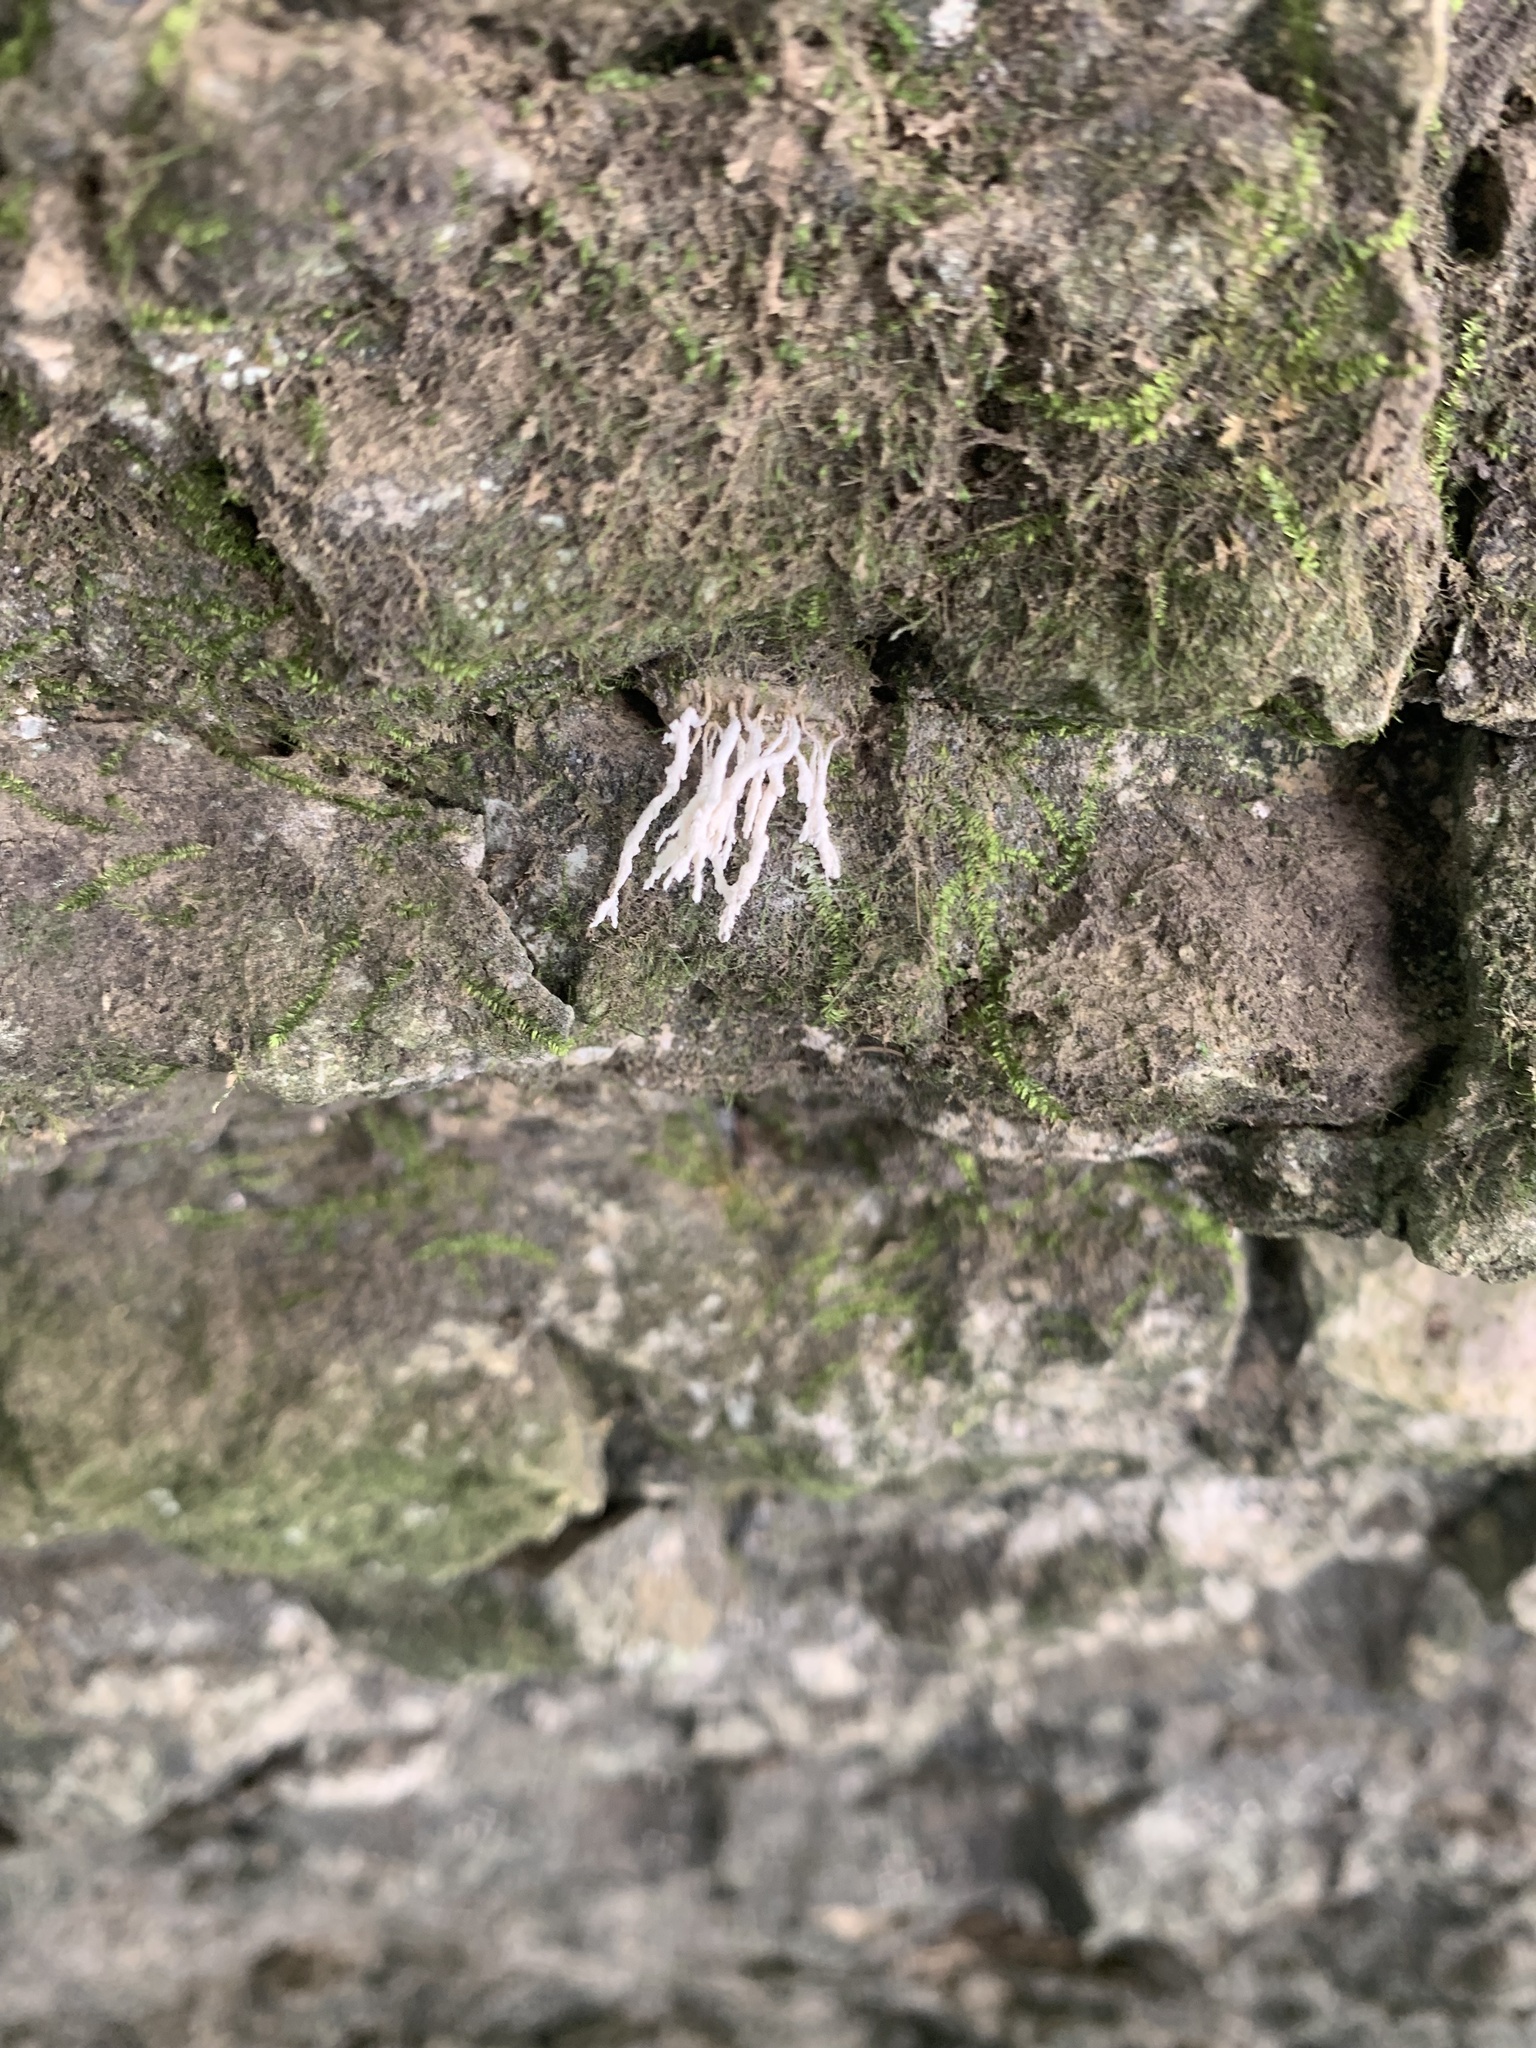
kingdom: Fungi
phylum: Ascomycota
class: Sordariomycetes
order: Hypocreales
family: Cordycipitaceae
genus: Cordyceps
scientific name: Cordyceps tenuipes
